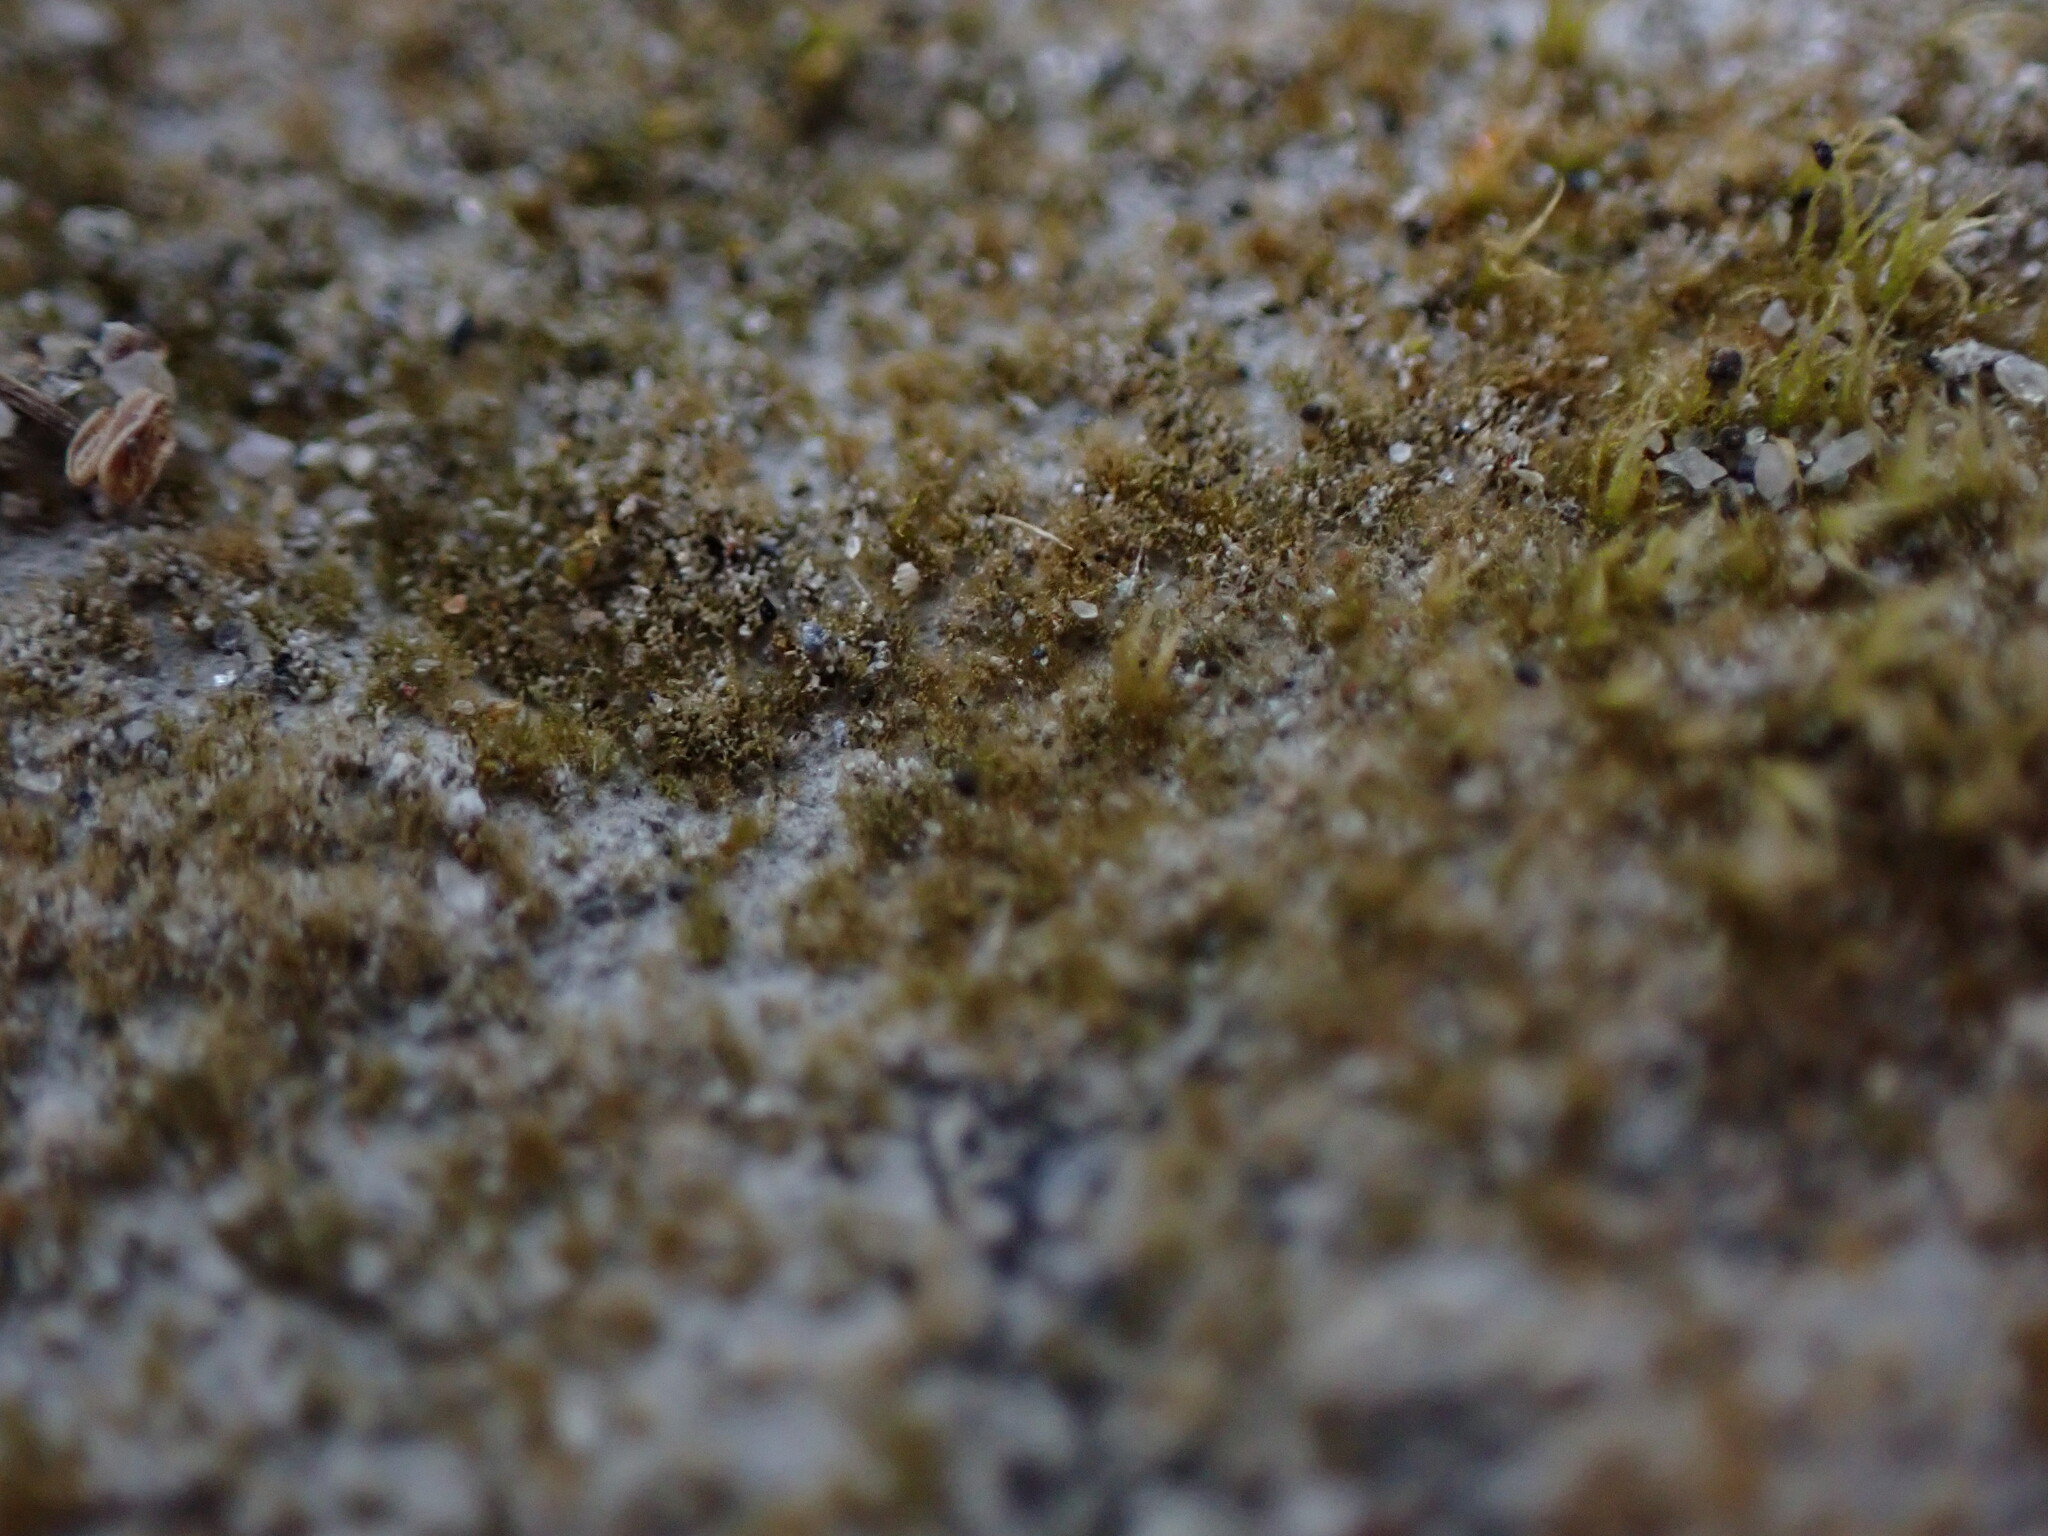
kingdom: Plantae
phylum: Bryophyta
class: Bryopsida
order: Pottiales
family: Ephemeraceae
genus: Ephemerum
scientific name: Ephemerum spinulosum
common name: Slender-toothed earth moss
